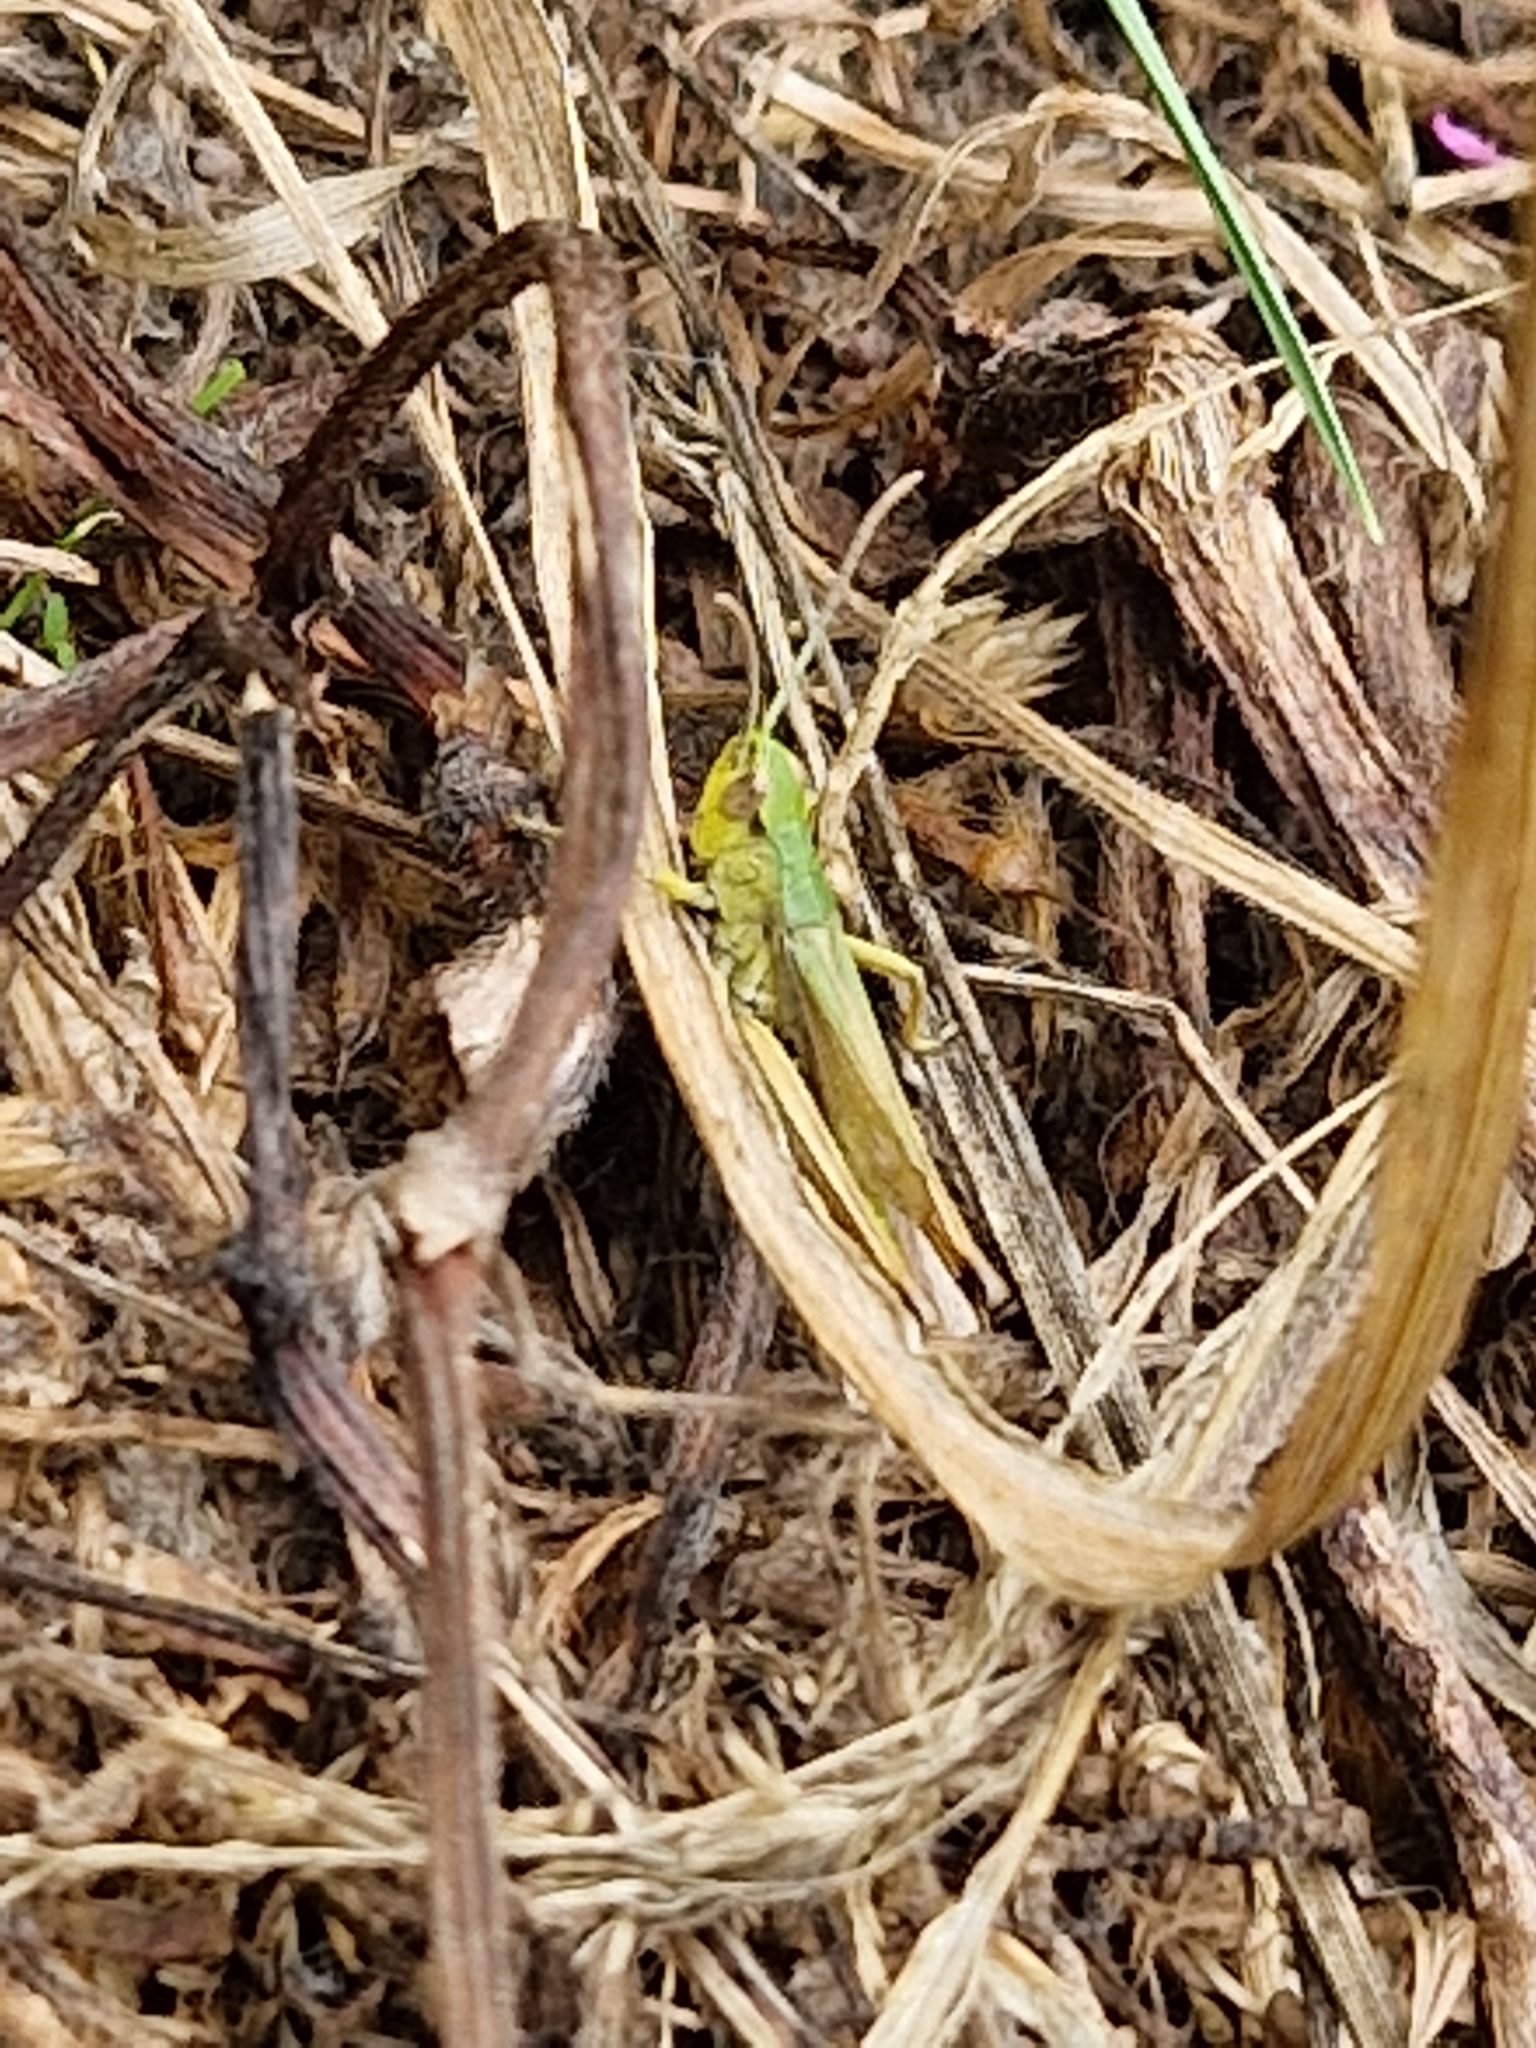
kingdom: Animalia
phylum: Arthropoda
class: Insecta
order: Orthoptera
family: Acrididae
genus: Pseudochorthippus
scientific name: Pseudochorthippus parallelus
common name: Meadow grasshopper
